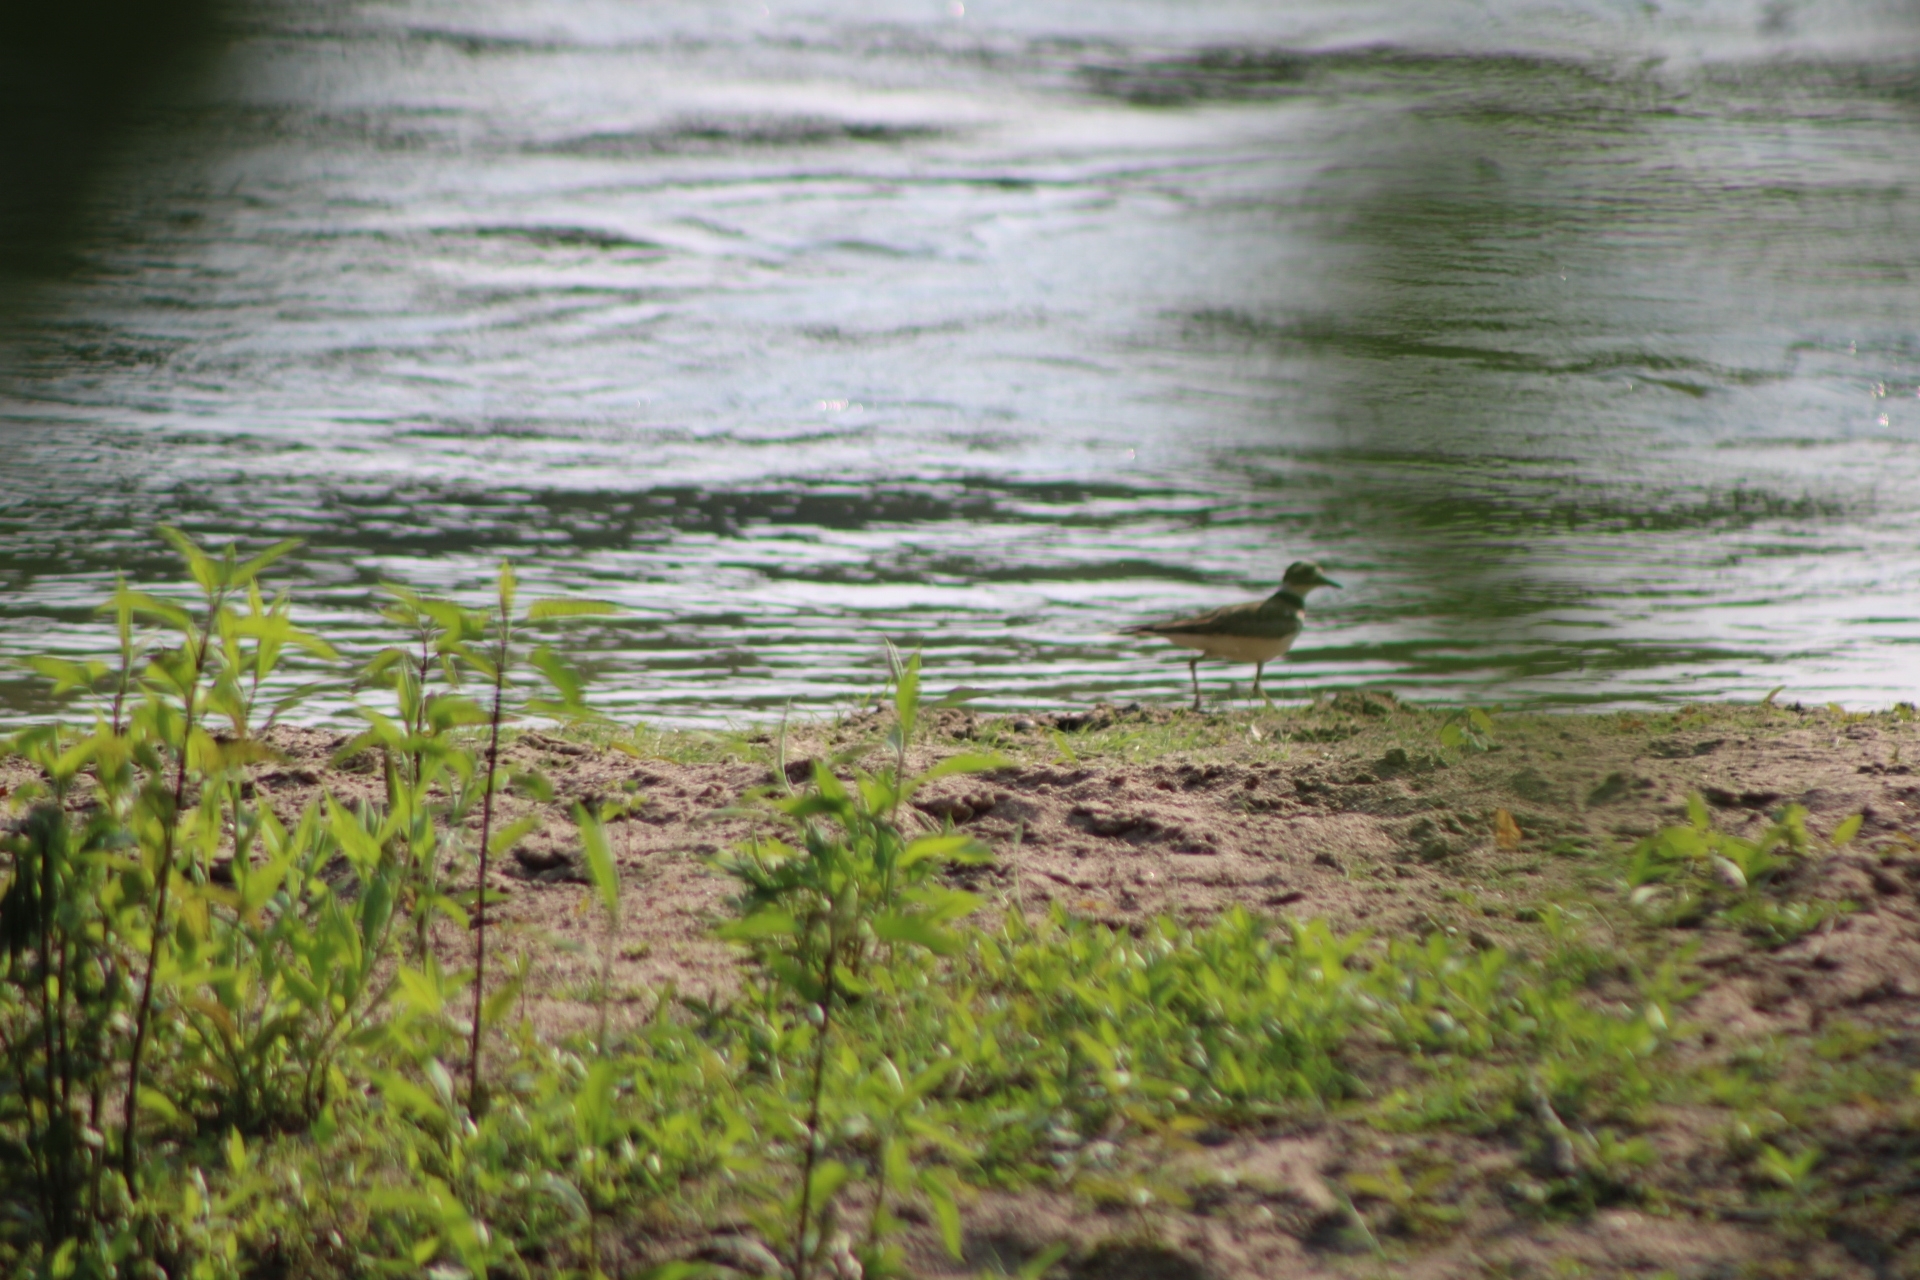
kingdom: Animalia
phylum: Chordata
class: Aves
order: Charadriiformes
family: Charadriidae
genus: Charadrius
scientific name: Charadrius vociferus
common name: Killdeer
